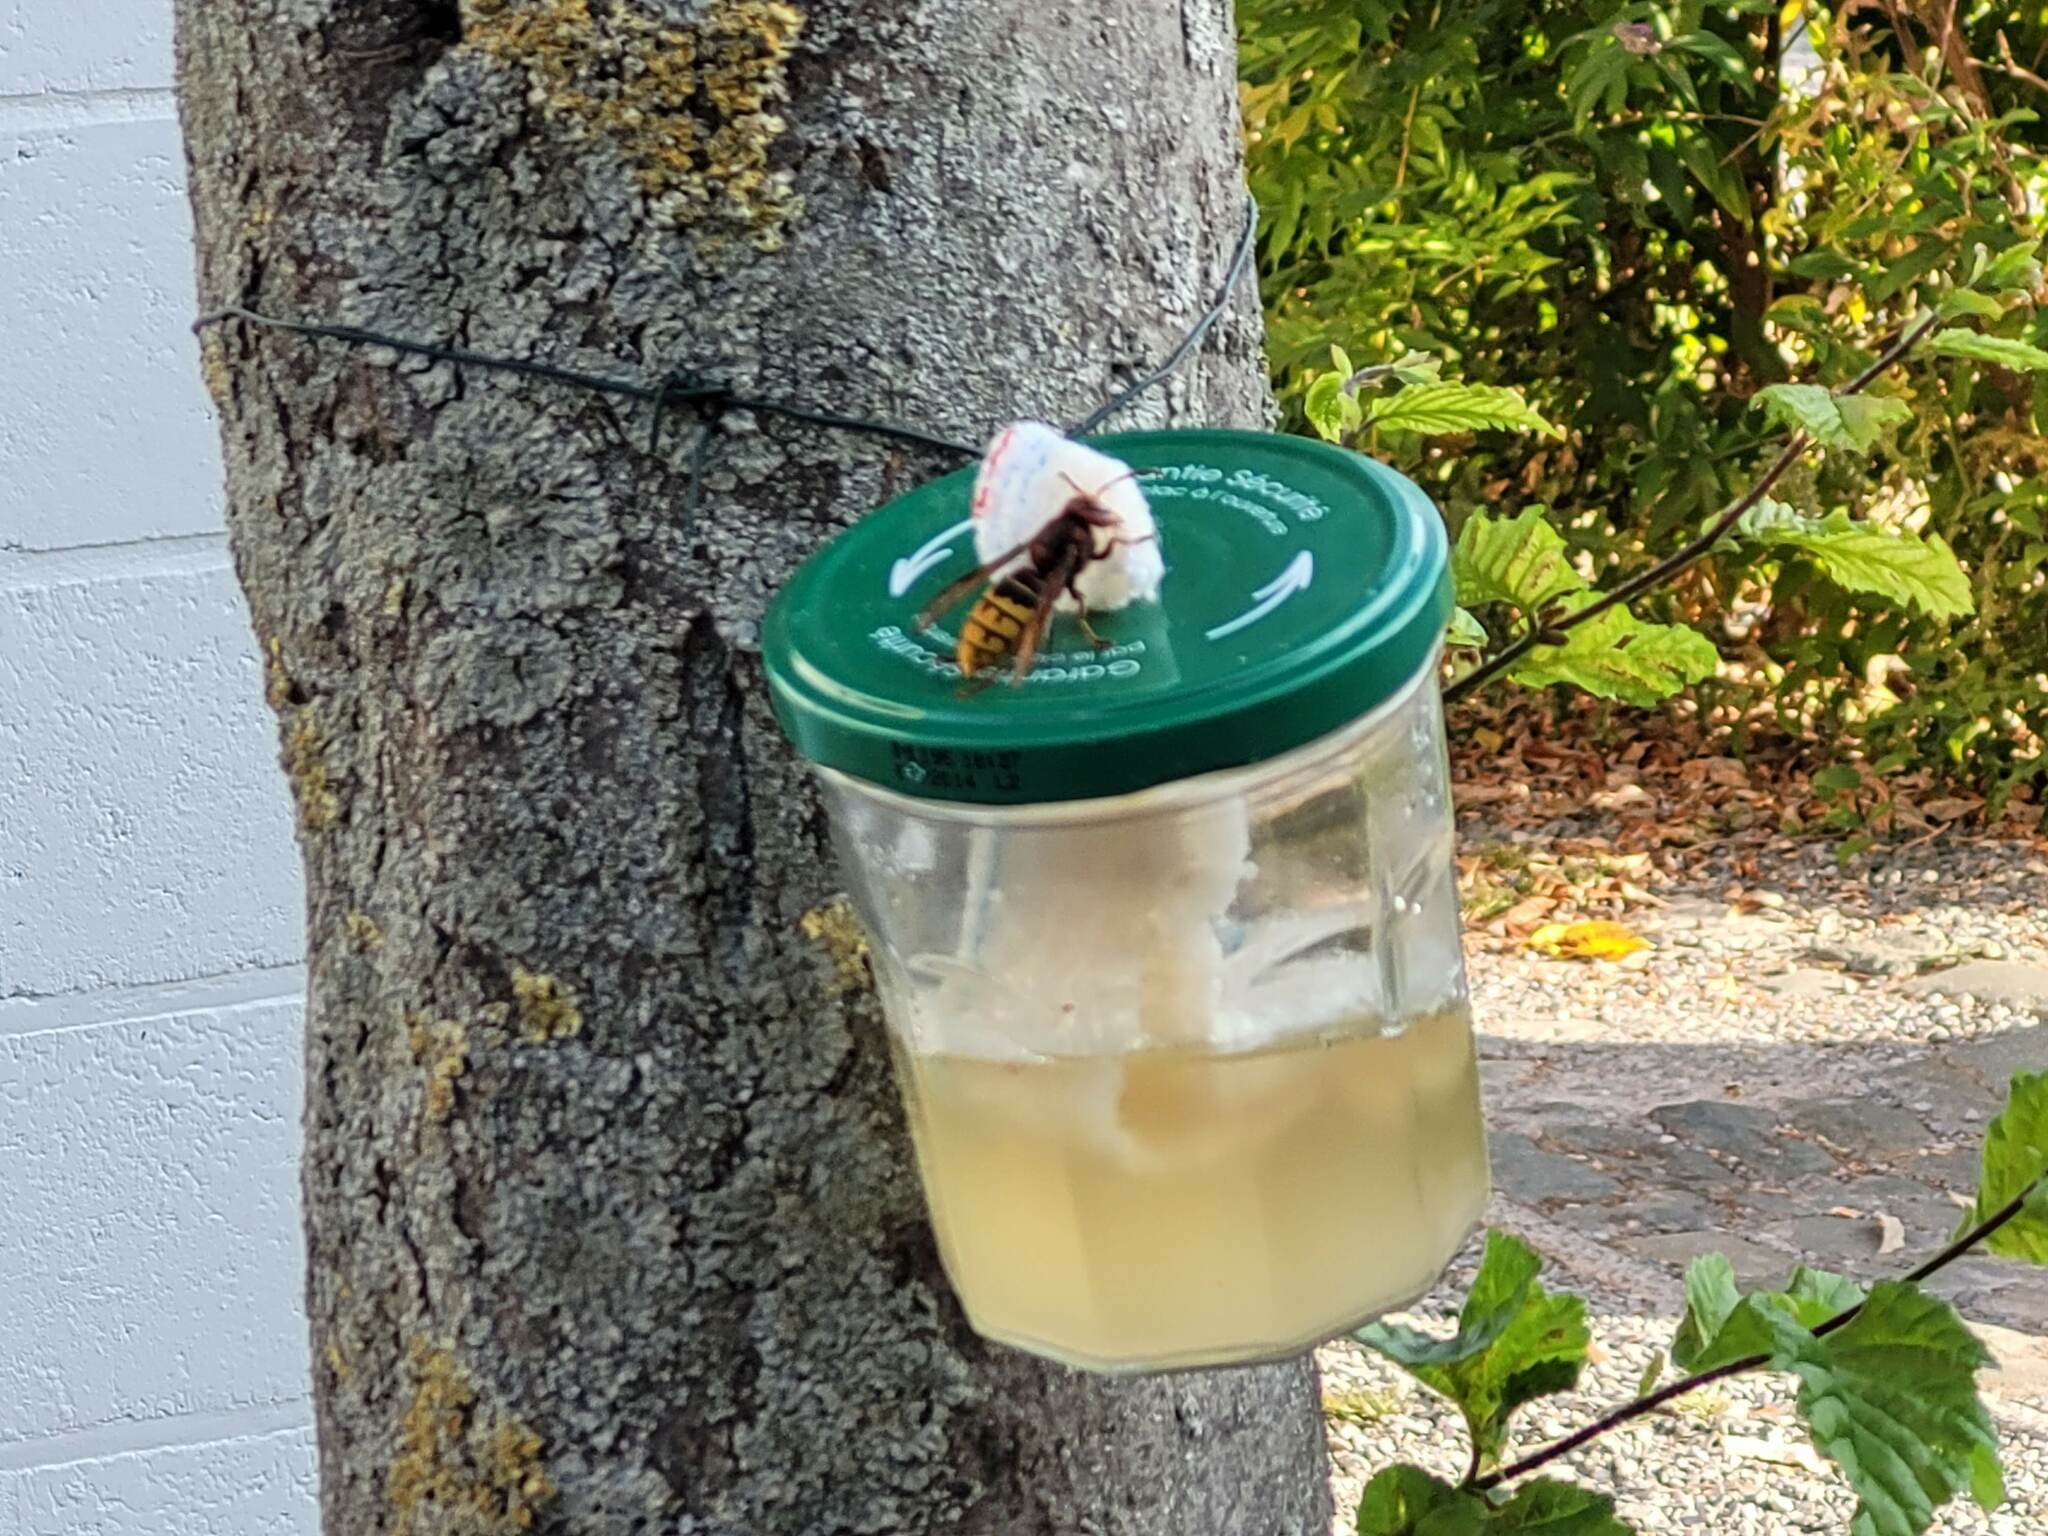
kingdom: Animalia
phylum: Arthropoda
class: Insecta
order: Hymenoptera
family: Vespidae
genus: Vespa
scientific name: Vespa crabro
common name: Hornet
